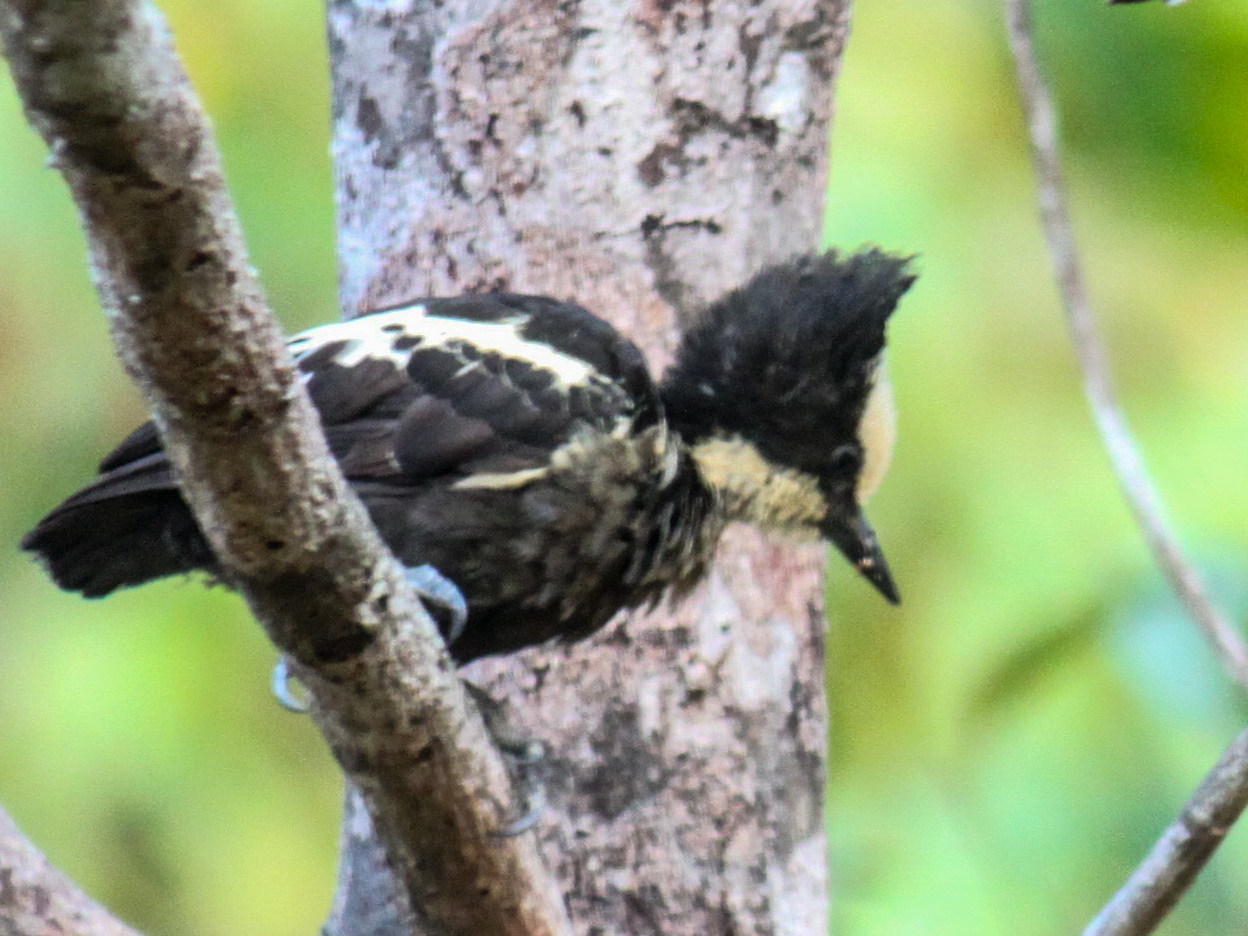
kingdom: Animalia
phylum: Chordata
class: Aves
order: Piciformes
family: Picidae
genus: Hemicircus
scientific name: Hemicircus canente
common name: Heart-spotted woodpecker
